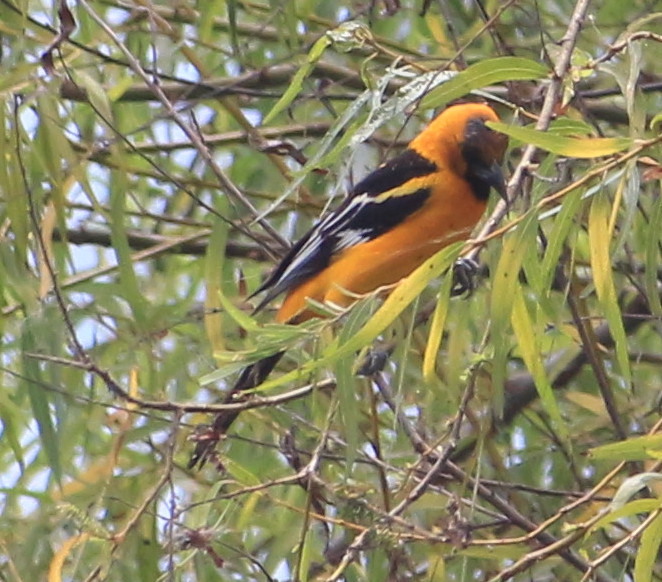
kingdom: Animalia
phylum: Chordata
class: Aves
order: Passeriformes
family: Icteridae
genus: Icterus
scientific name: Icterus gularis
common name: Altamira oriole
